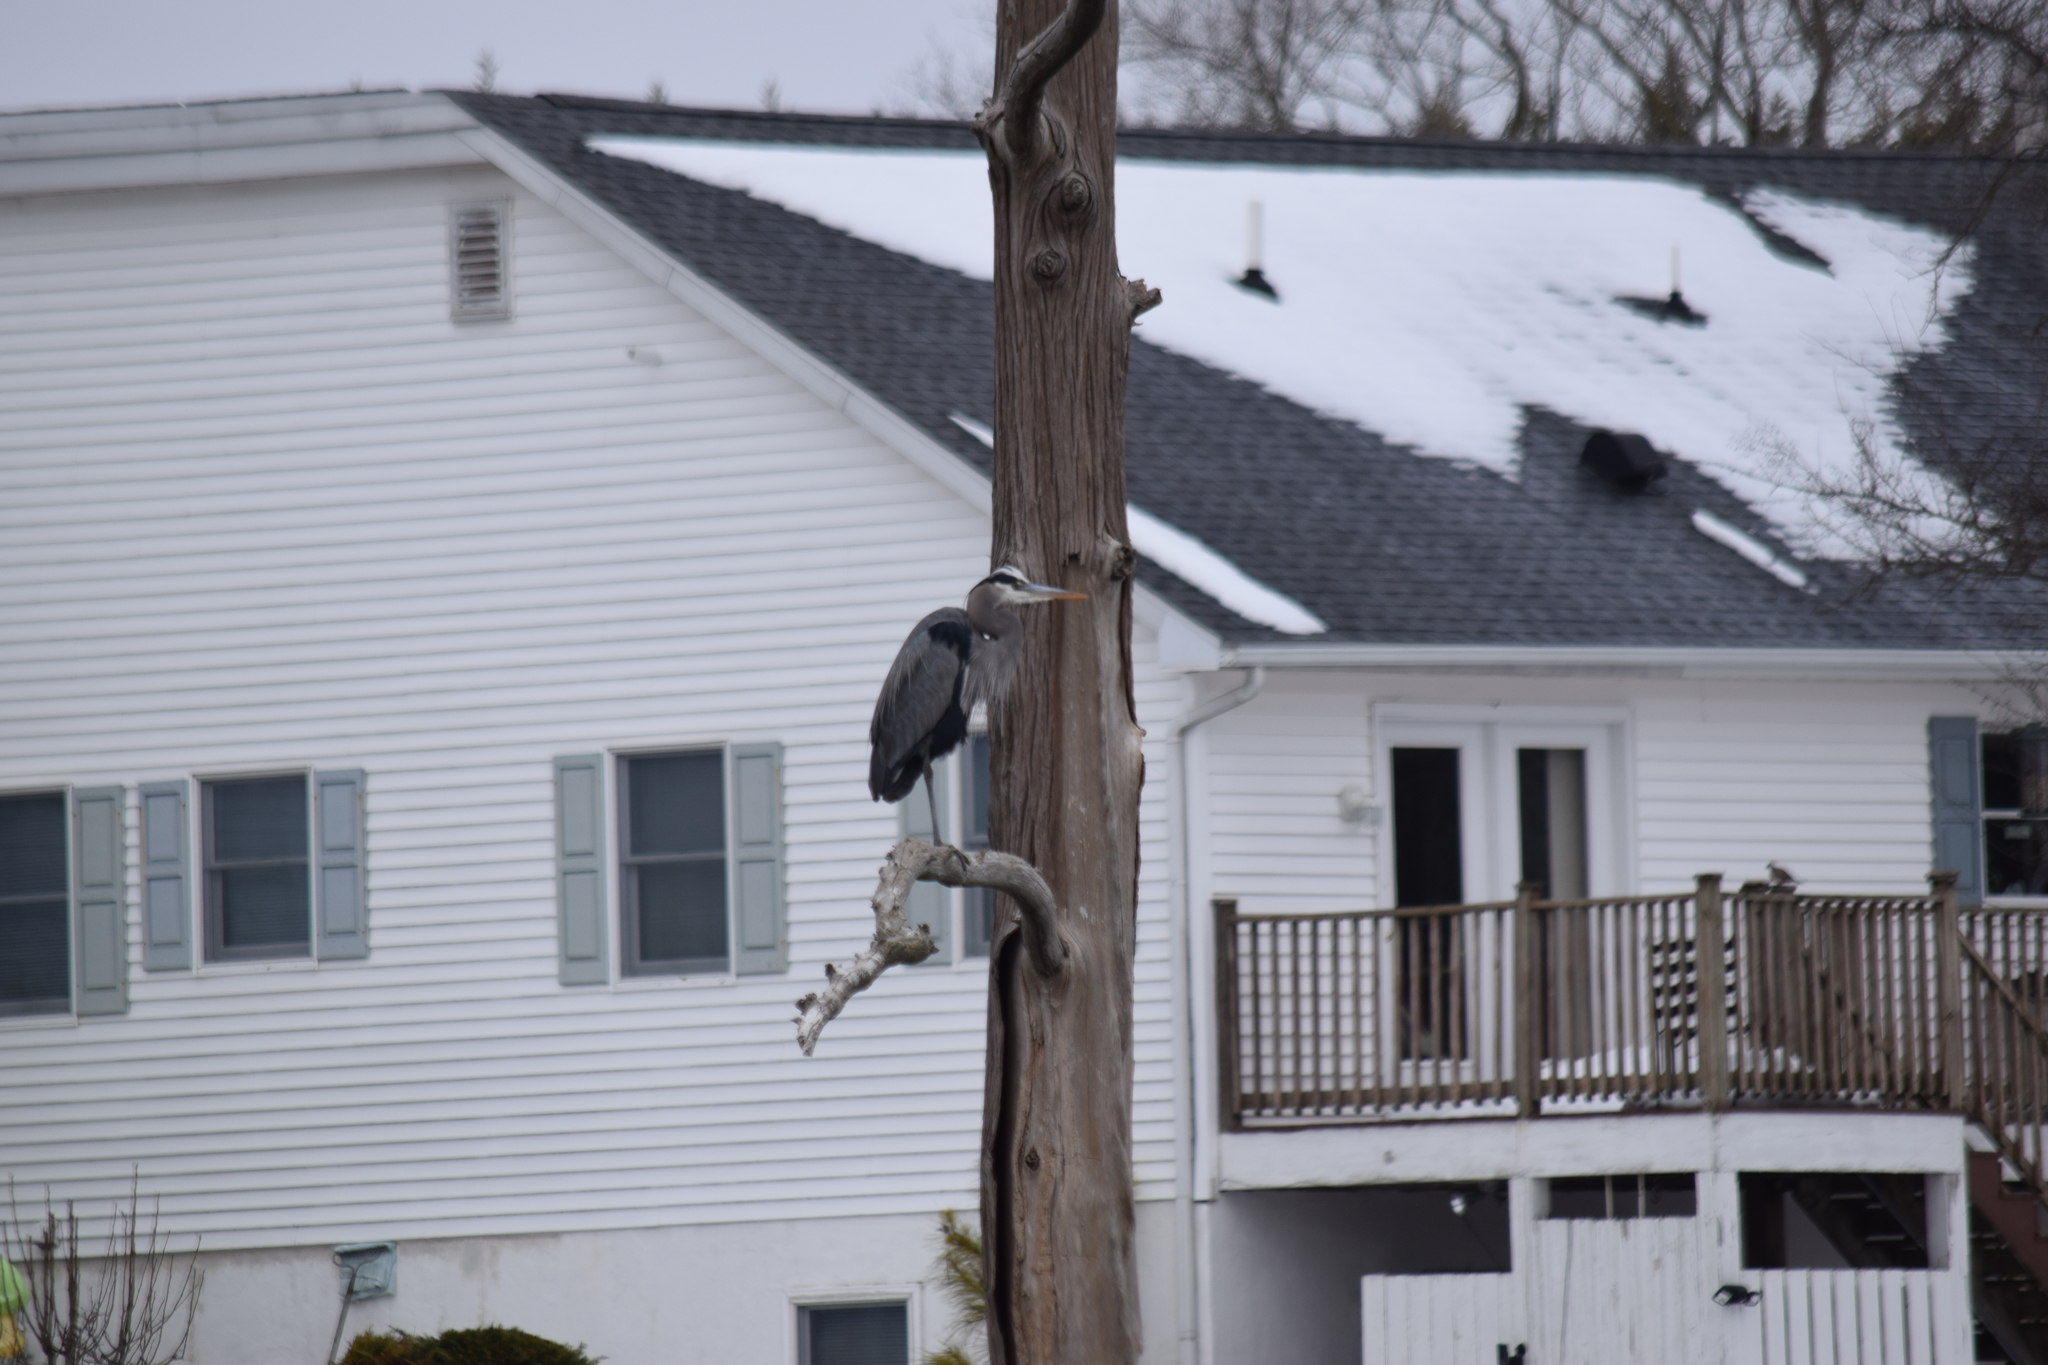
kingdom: Animalia
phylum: Chordata
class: Aves
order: Pelecaniformes
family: Ardeidae
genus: Ardea
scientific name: Ardea herodias
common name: Great blue heron
